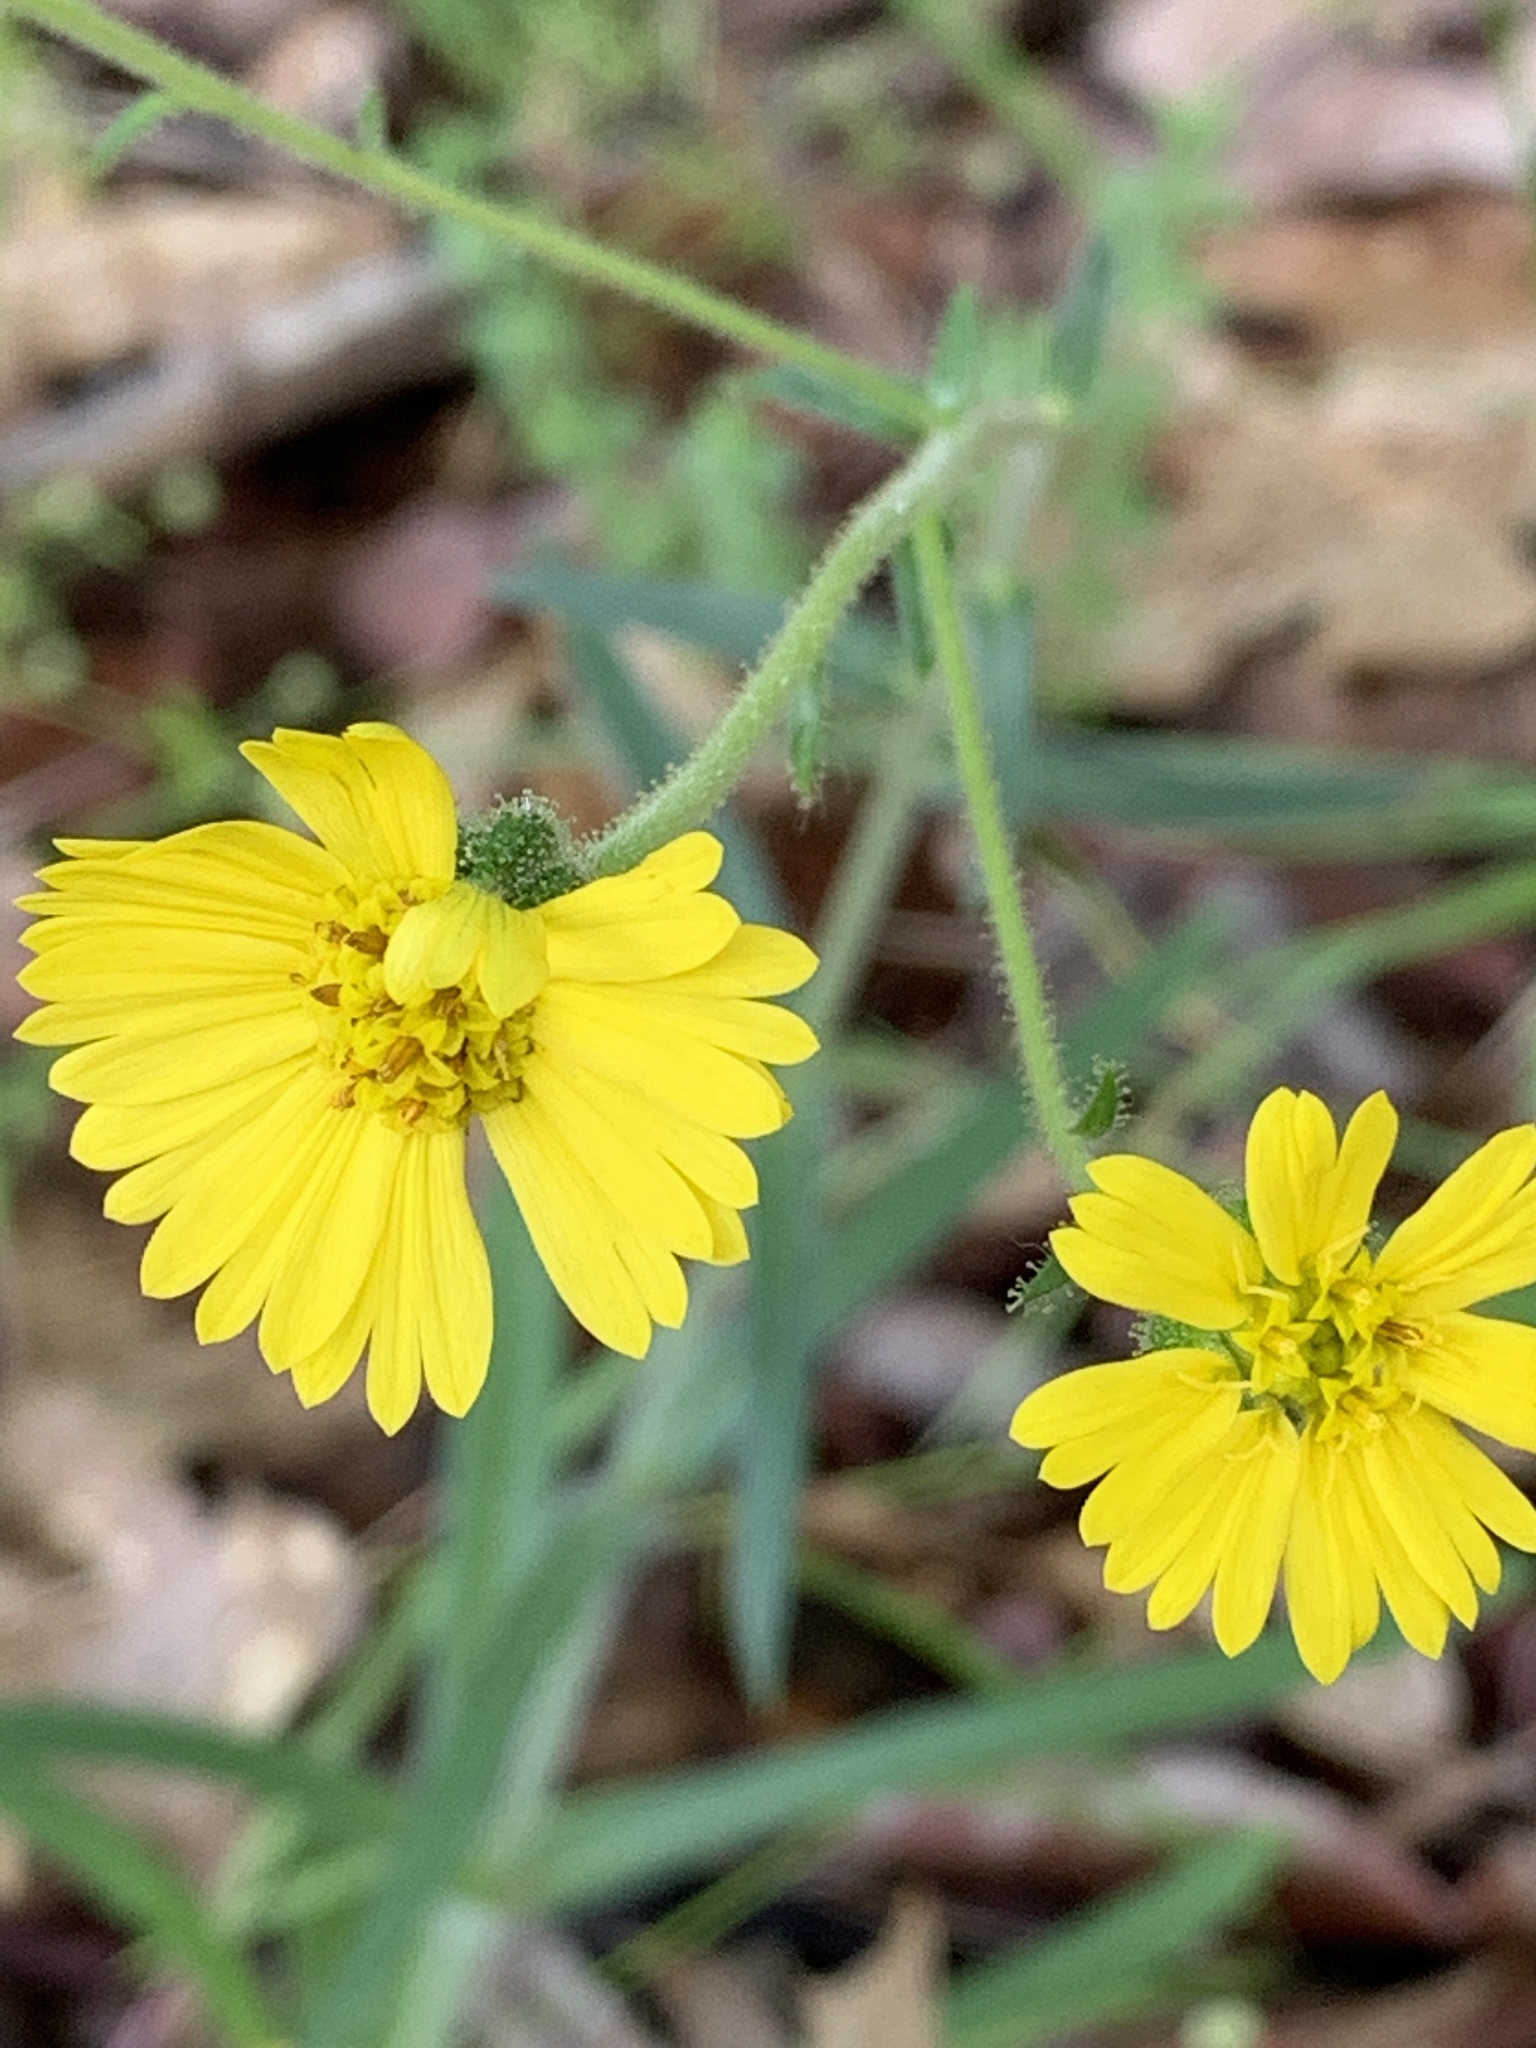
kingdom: Plantae
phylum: Tracheophyta
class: Magnoliopsida
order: Asterales
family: Asteraceae
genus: Anisocarpus
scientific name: Anisocarpus madioides
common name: Woodland madia
